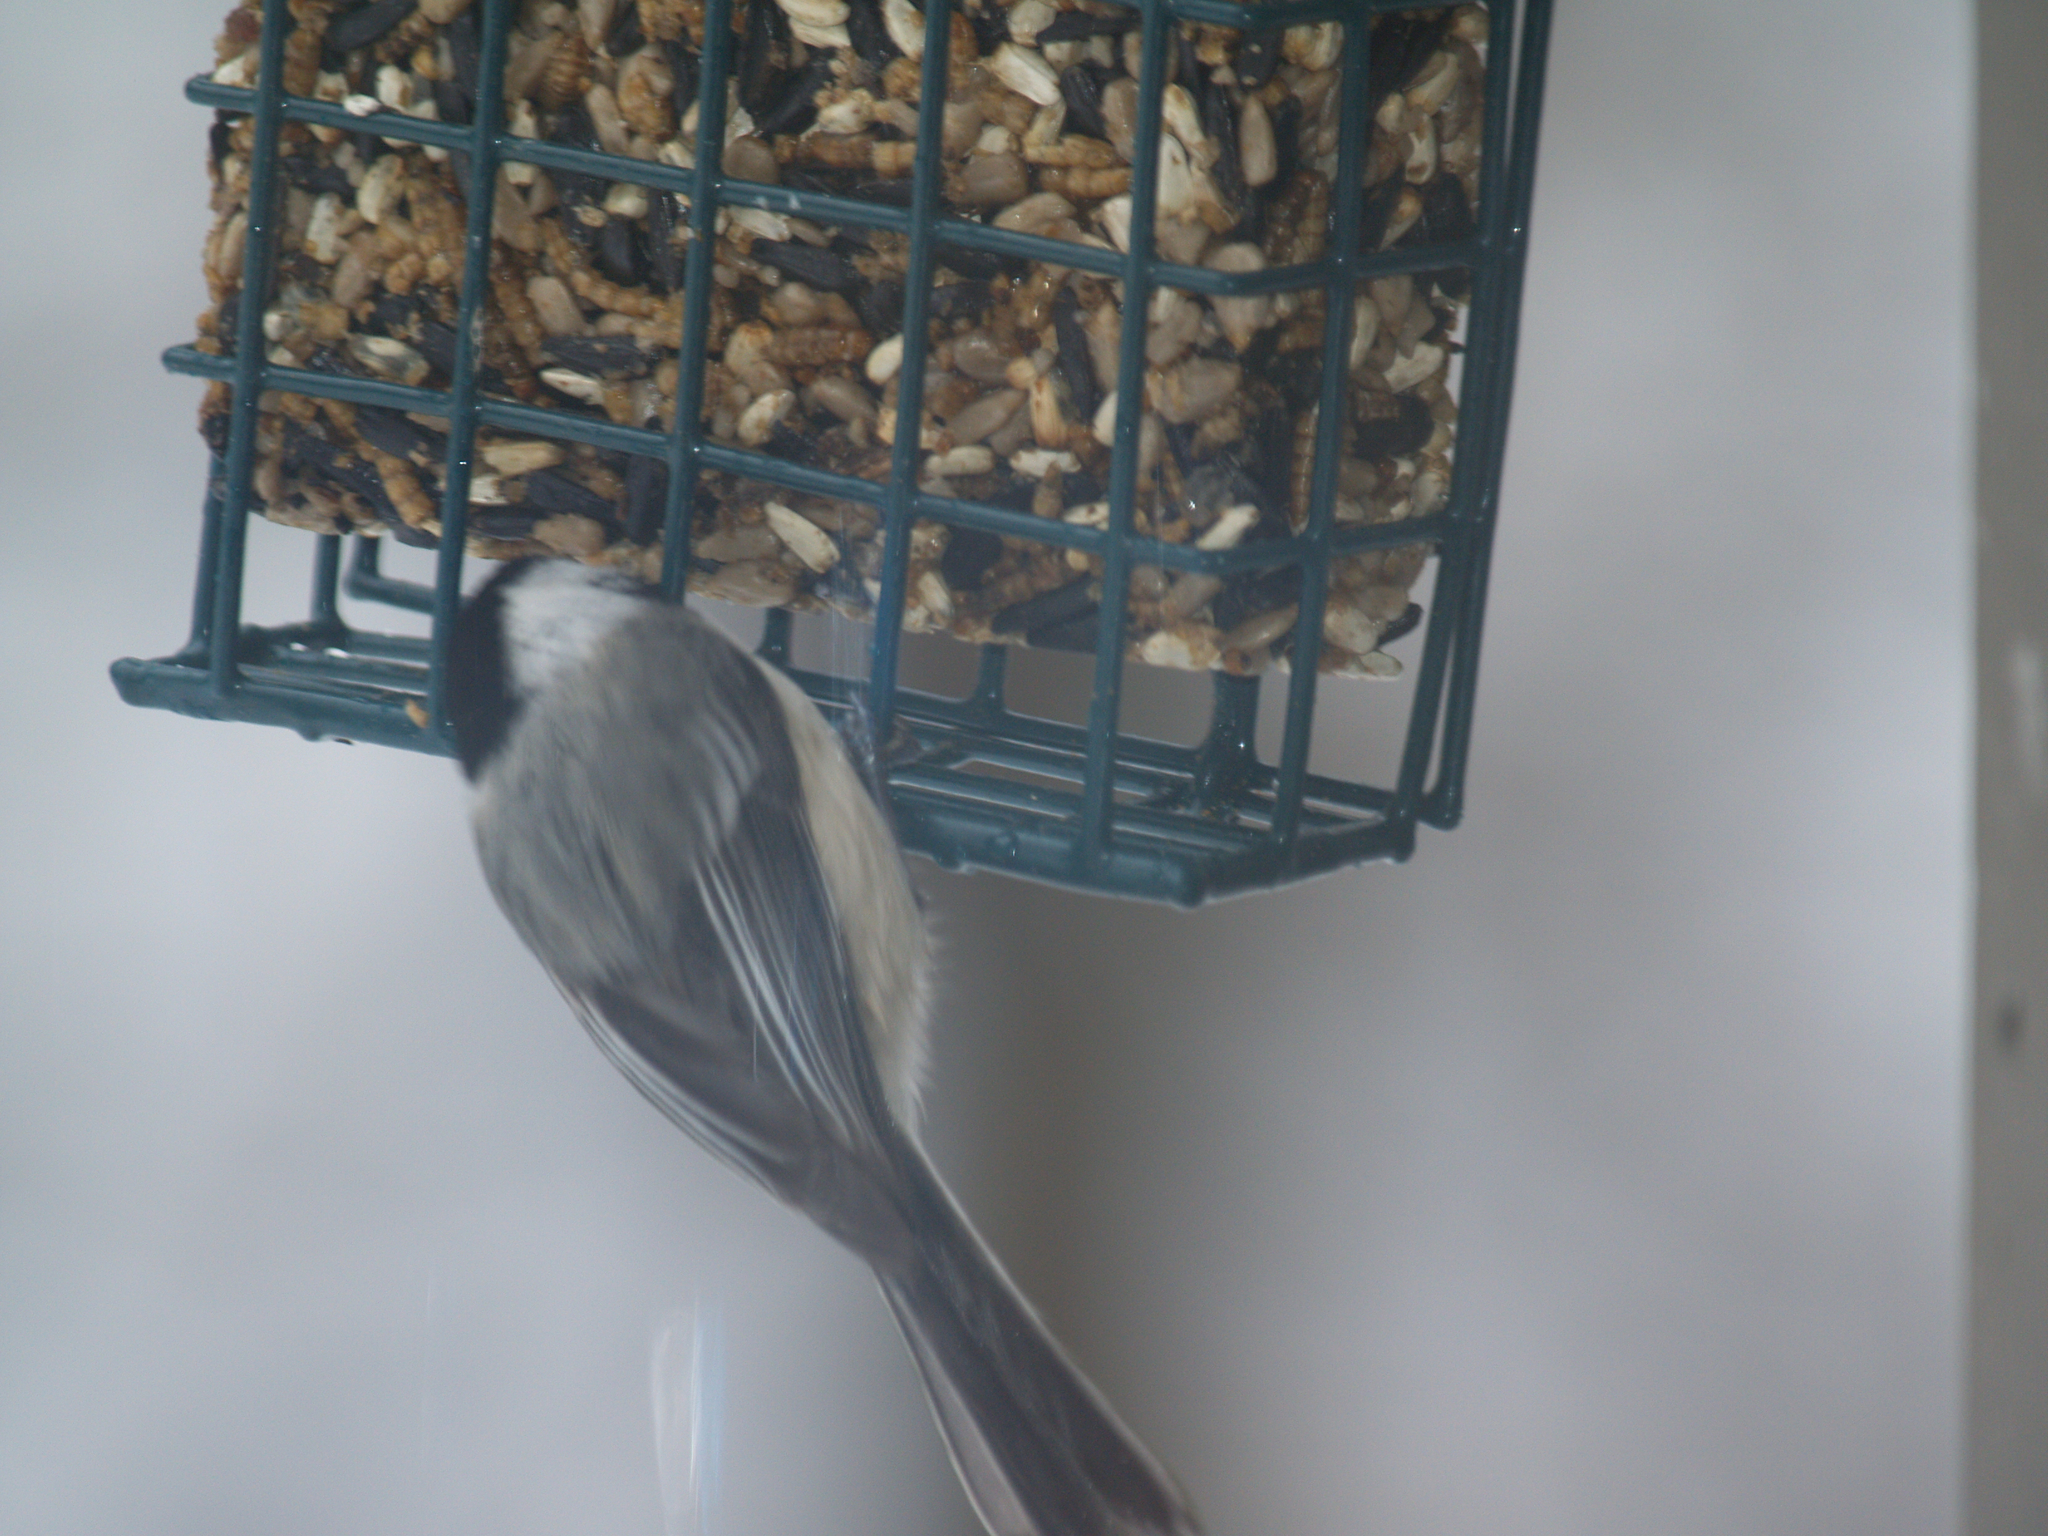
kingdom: Animalia
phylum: Chordata
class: Aves
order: Passeriformes
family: Paridae
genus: Poecile
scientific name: Poecile atricapillus
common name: Black-capped chickadee
